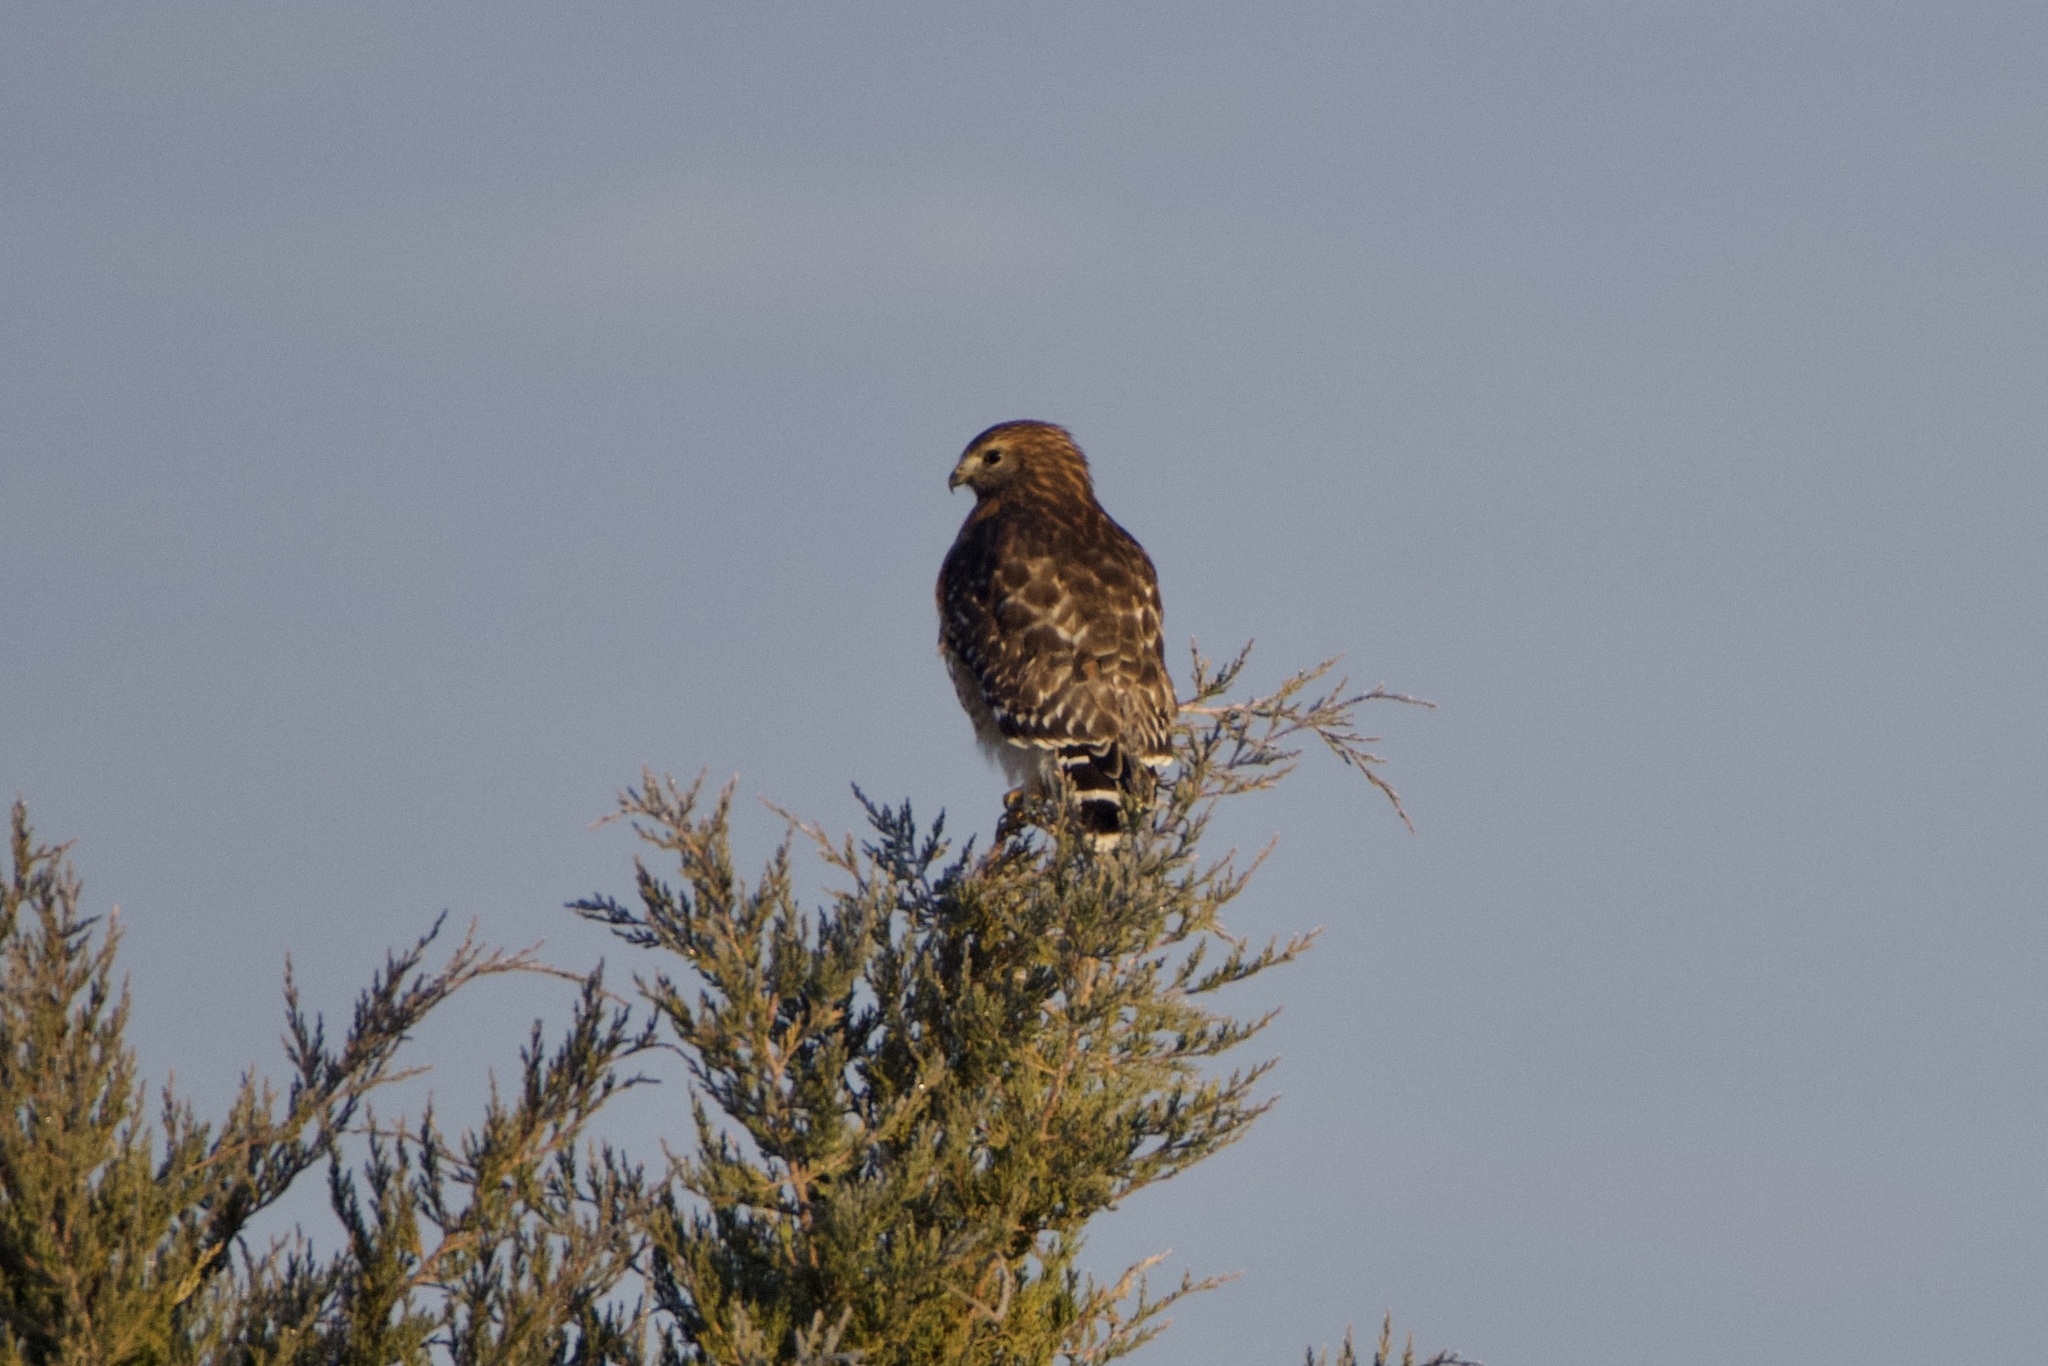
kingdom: Animalia
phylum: Chordata
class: Aves
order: Accipitriformes
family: Accipitridae
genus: Buteo
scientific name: Buteo lineatus
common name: Red-shouldered hawk
